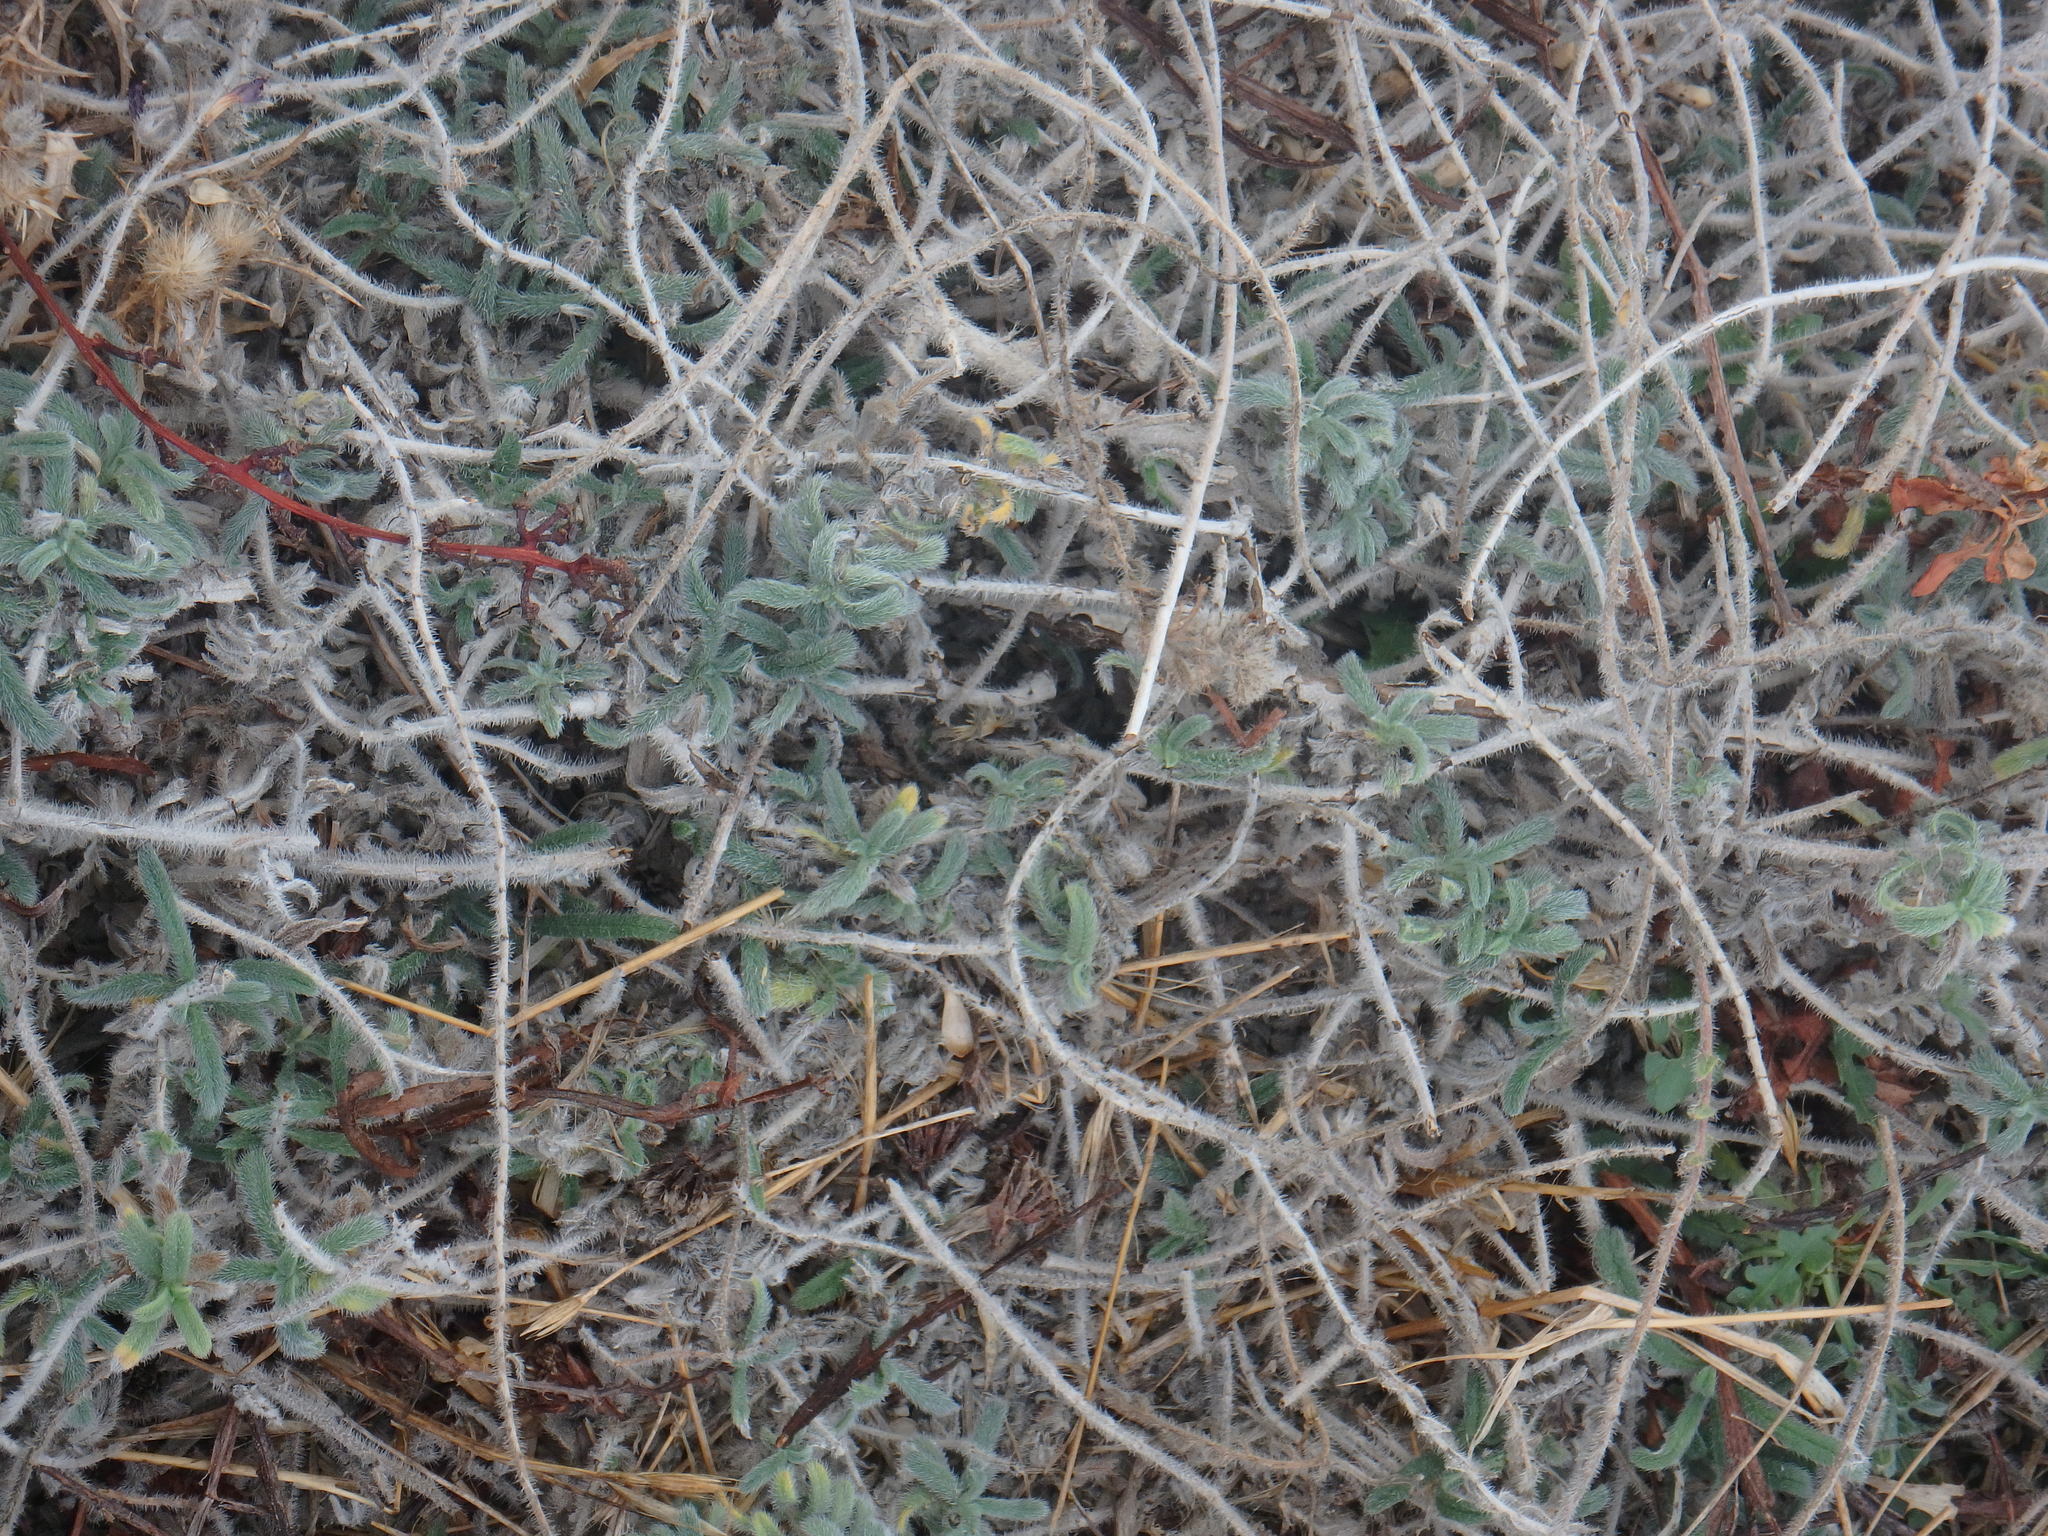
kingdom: Plantae
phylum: Tracheophyta
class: Magnoliopsida
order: Boraginales
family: Boraginaceae
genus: Echium
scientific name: Echium angustifolium
